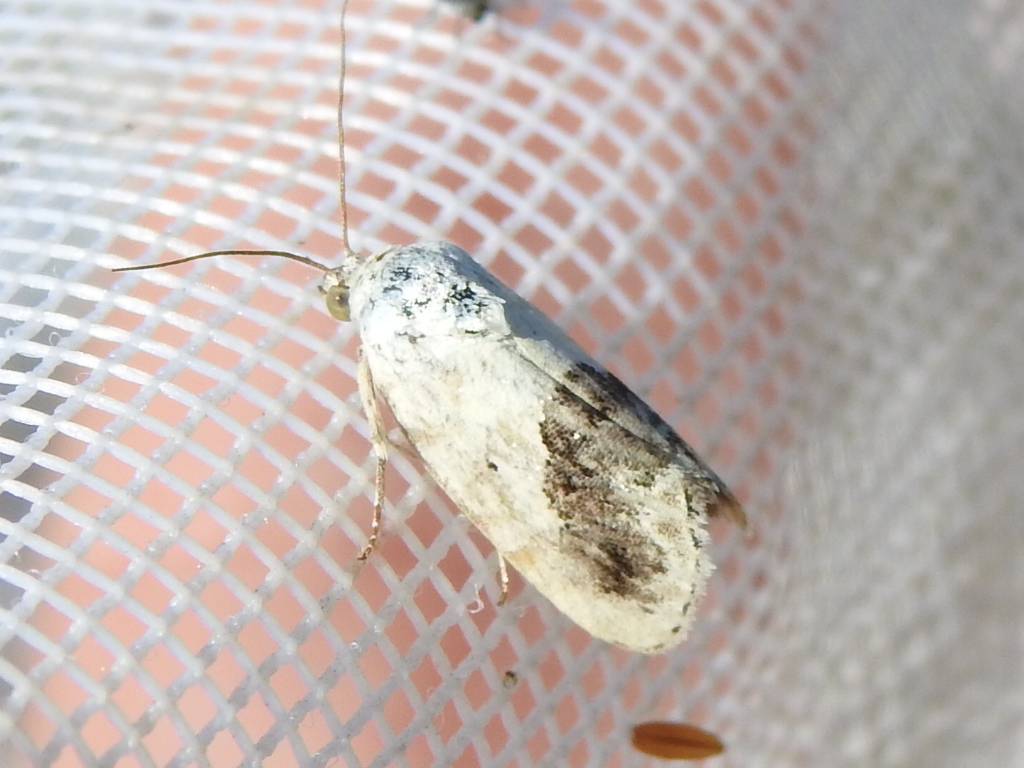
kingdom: Animalia
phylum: Arthropoda
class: Insecta
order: Lepidoptera
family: Noctuidae
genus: Acontia
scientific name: Acontia erastrioides
